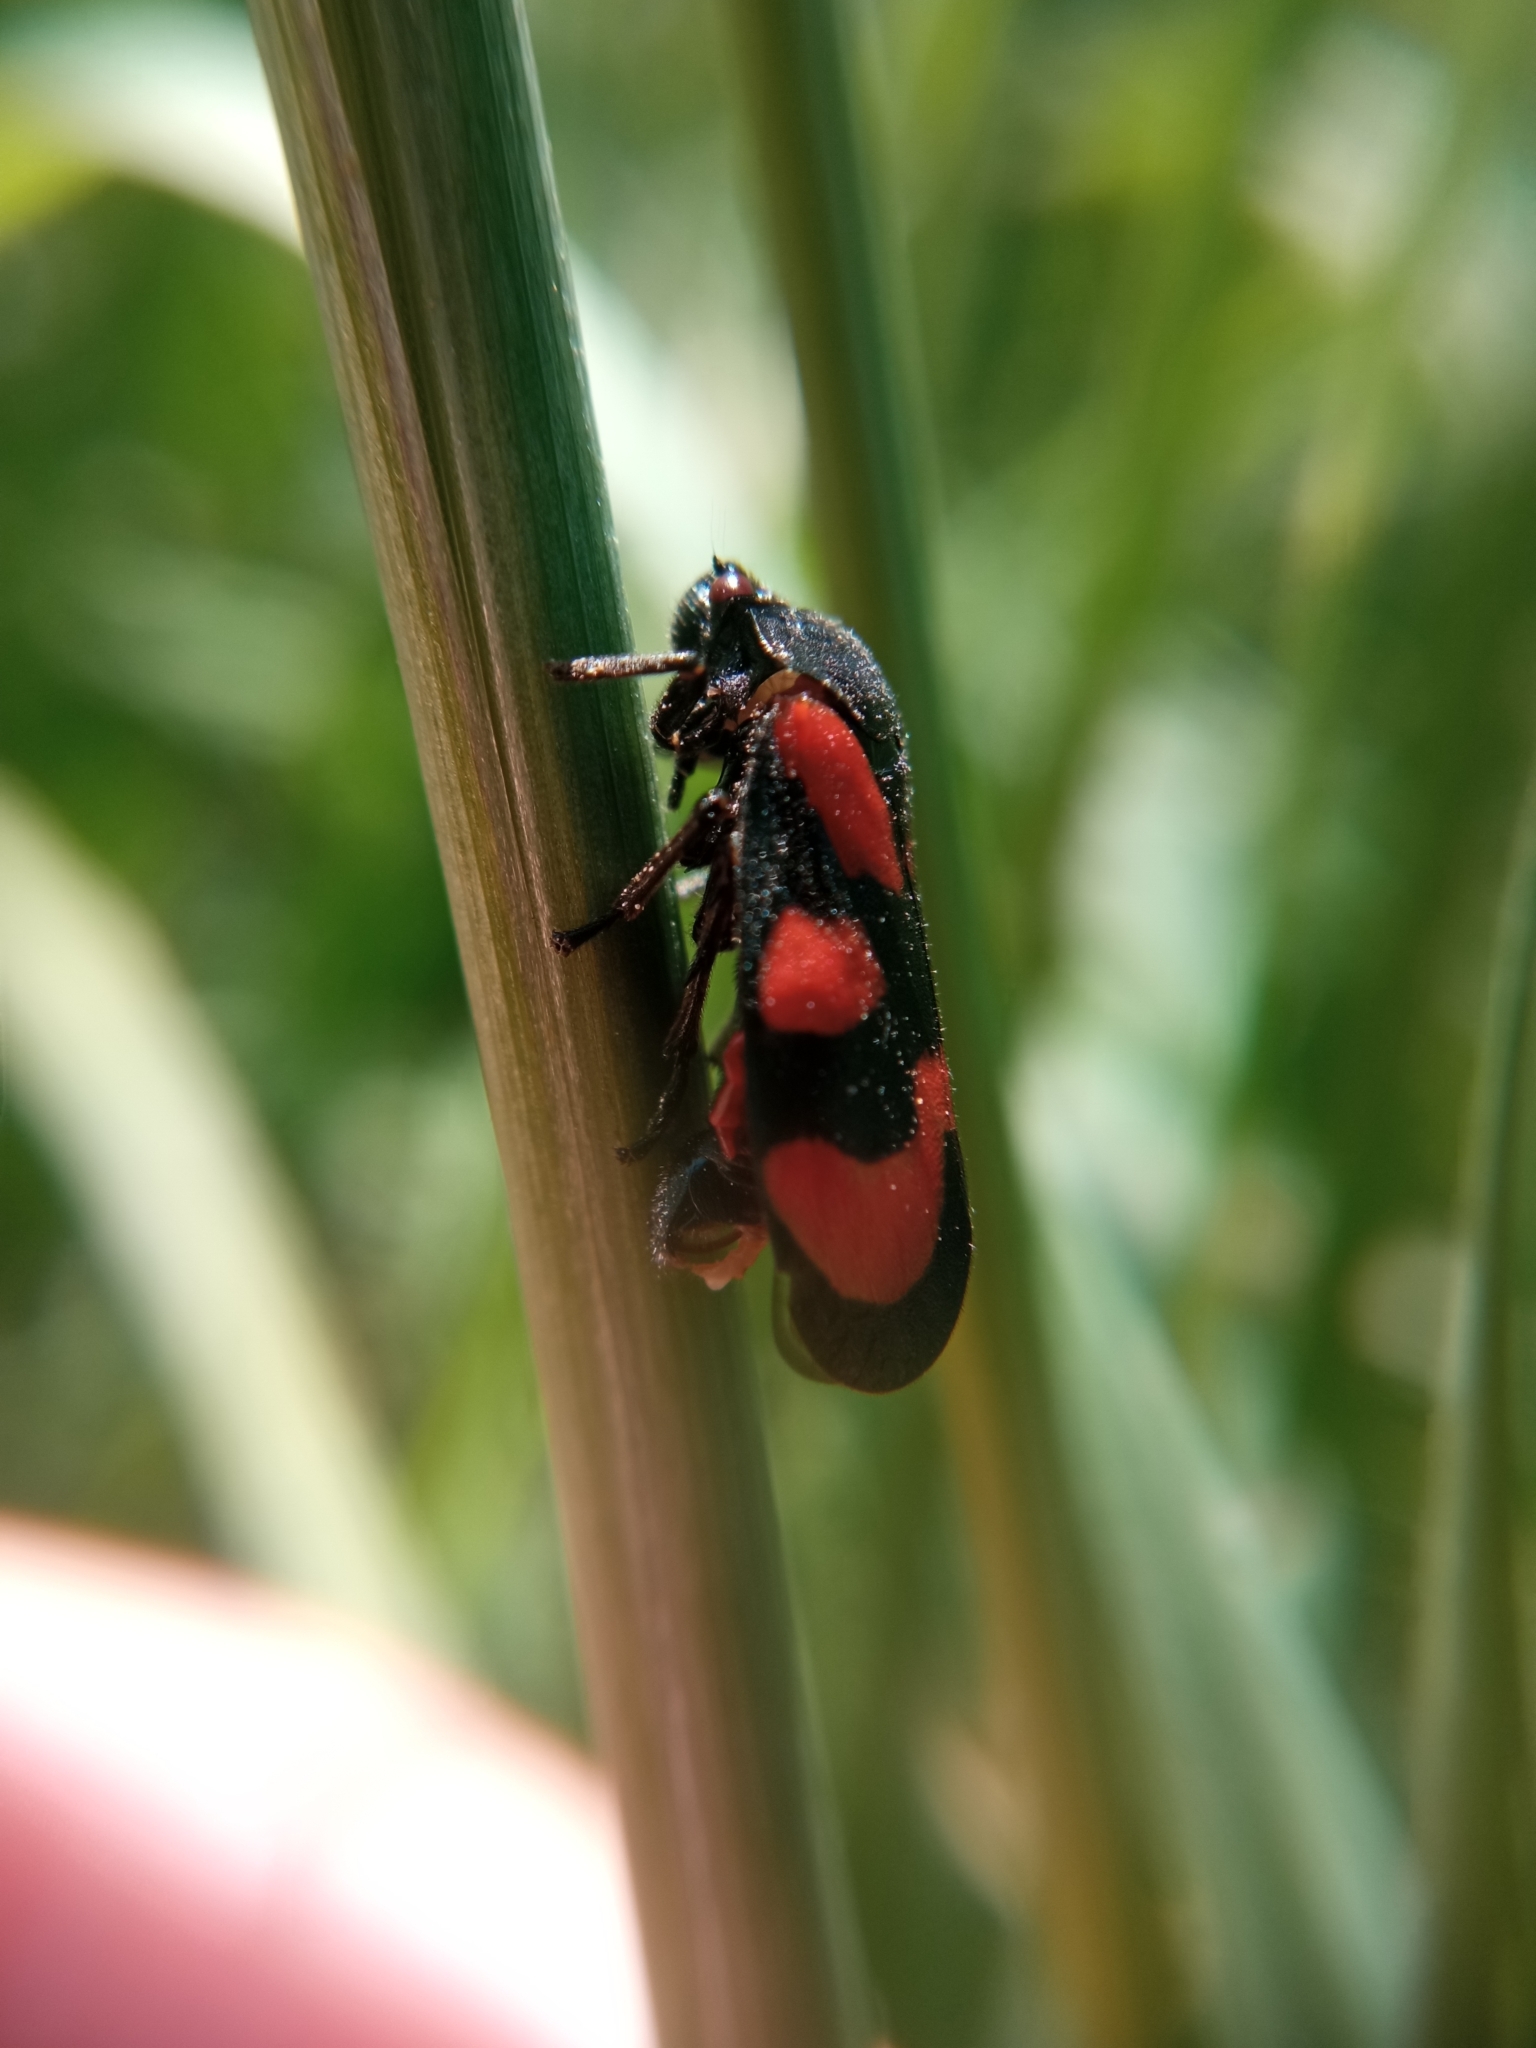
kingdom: Animalia
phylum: Arthropoda
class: Insecta
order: Hemiptera
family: Cercopidae
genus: Cercopis
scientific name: Cercopis vulnerata
